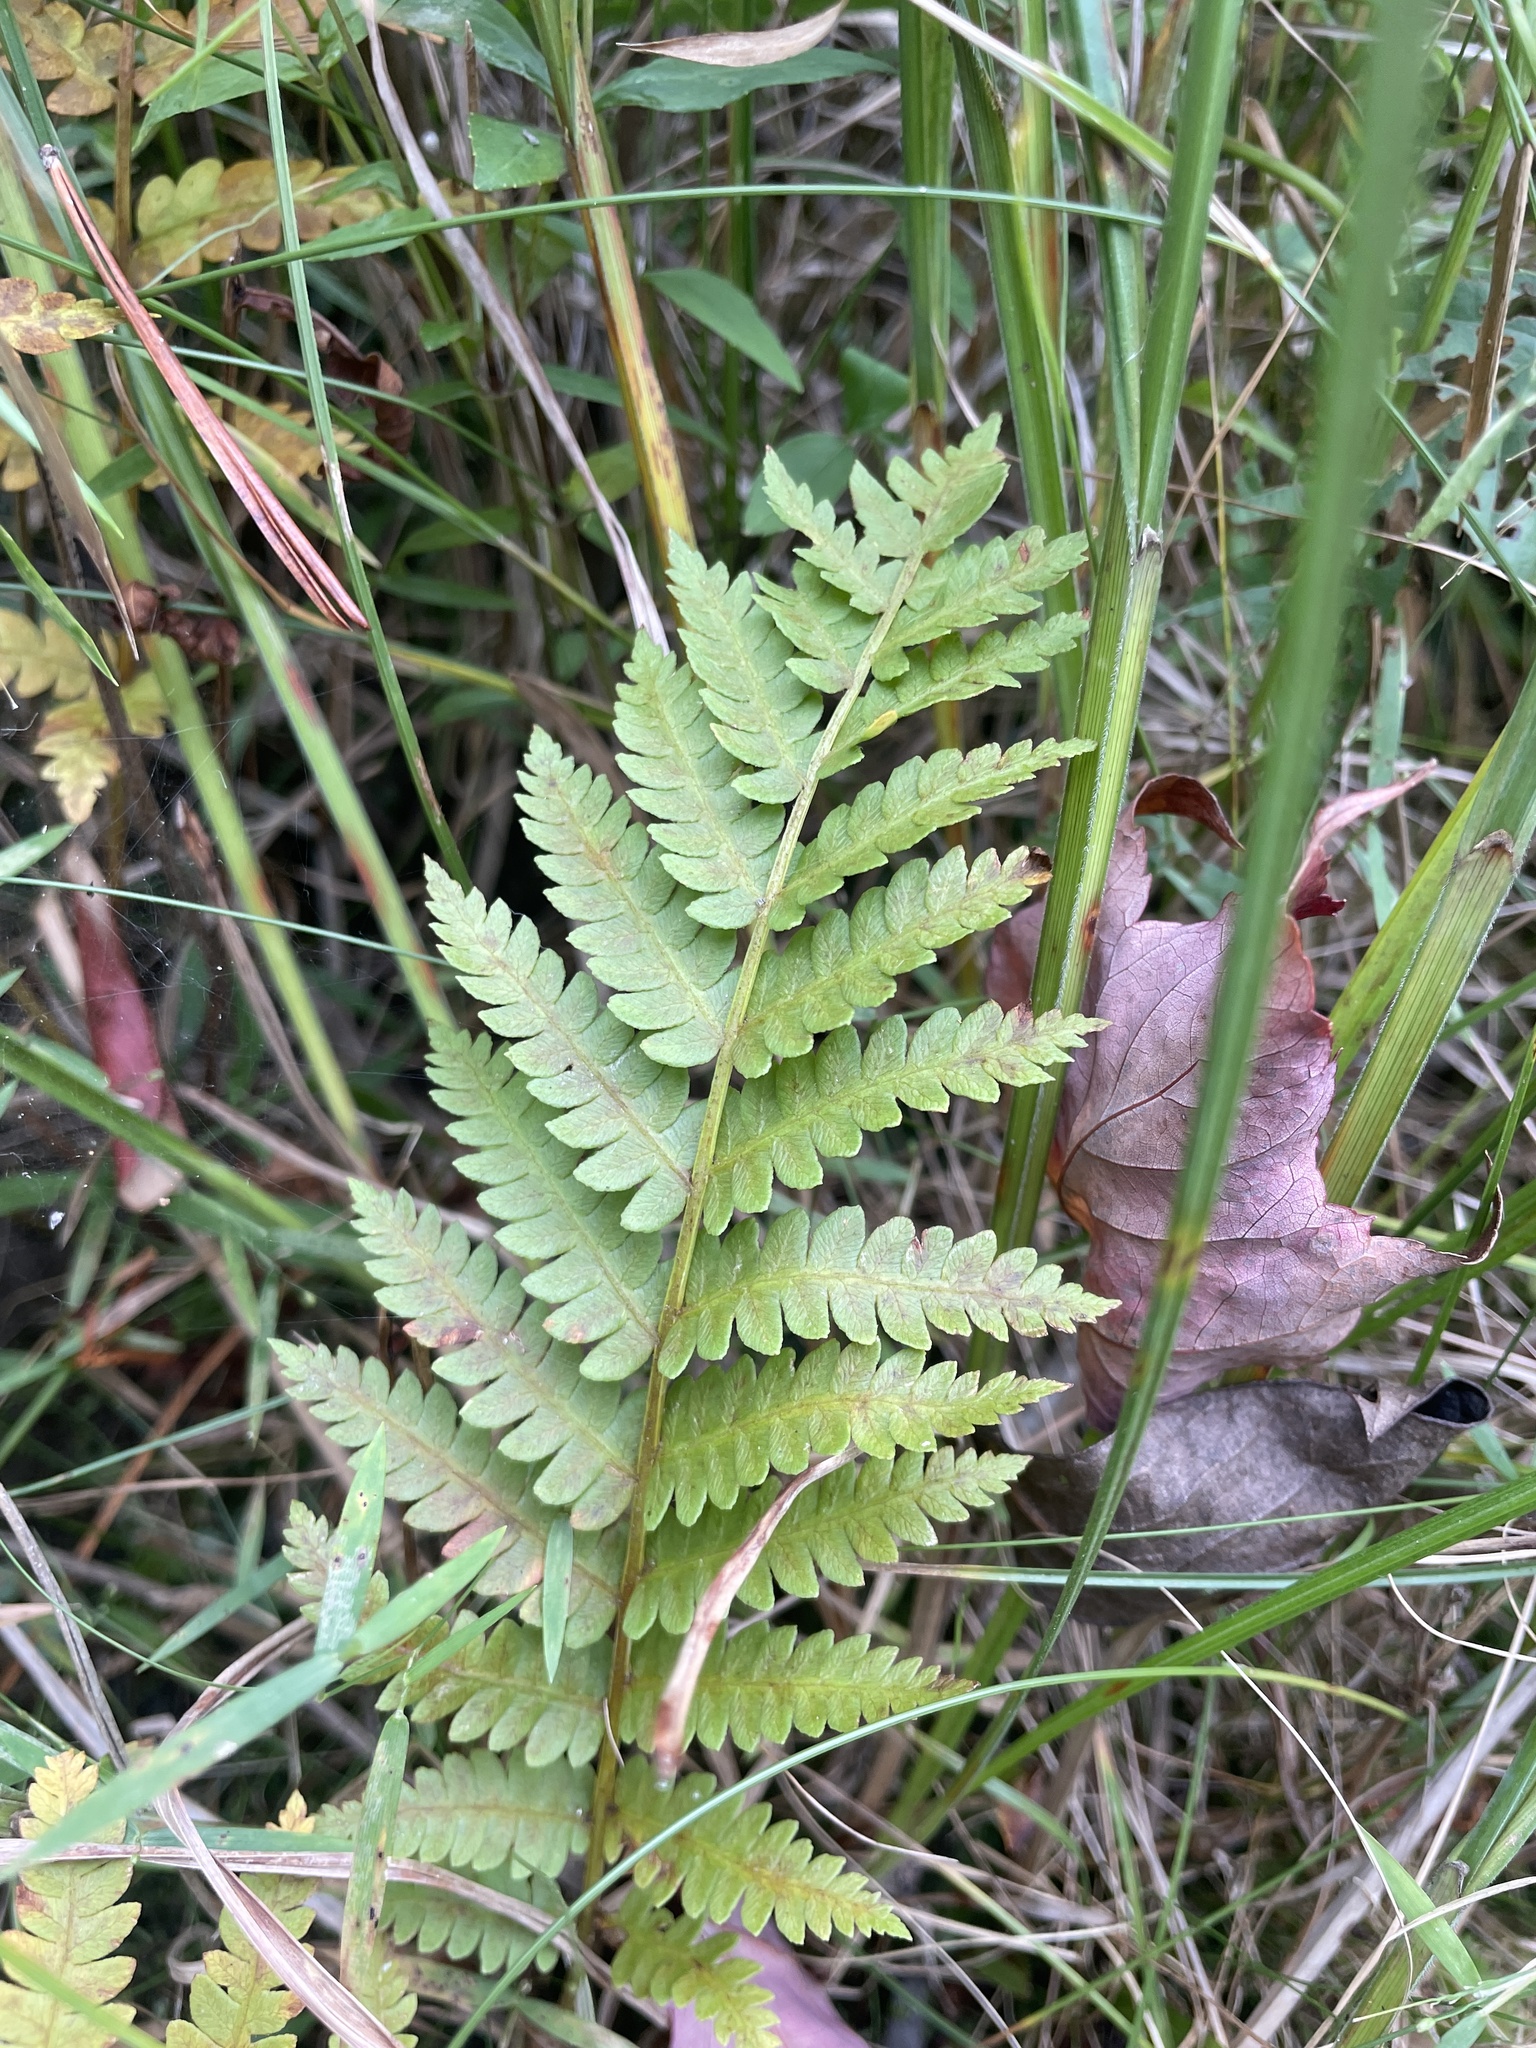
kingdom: Plantae
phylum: Tracheophyta
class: Polypodiopsida
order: Osmundales
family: Osmundaceae
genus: Osmundastrum
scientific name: Osmundastrum cinnamomeum
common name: Cinnamon fern
